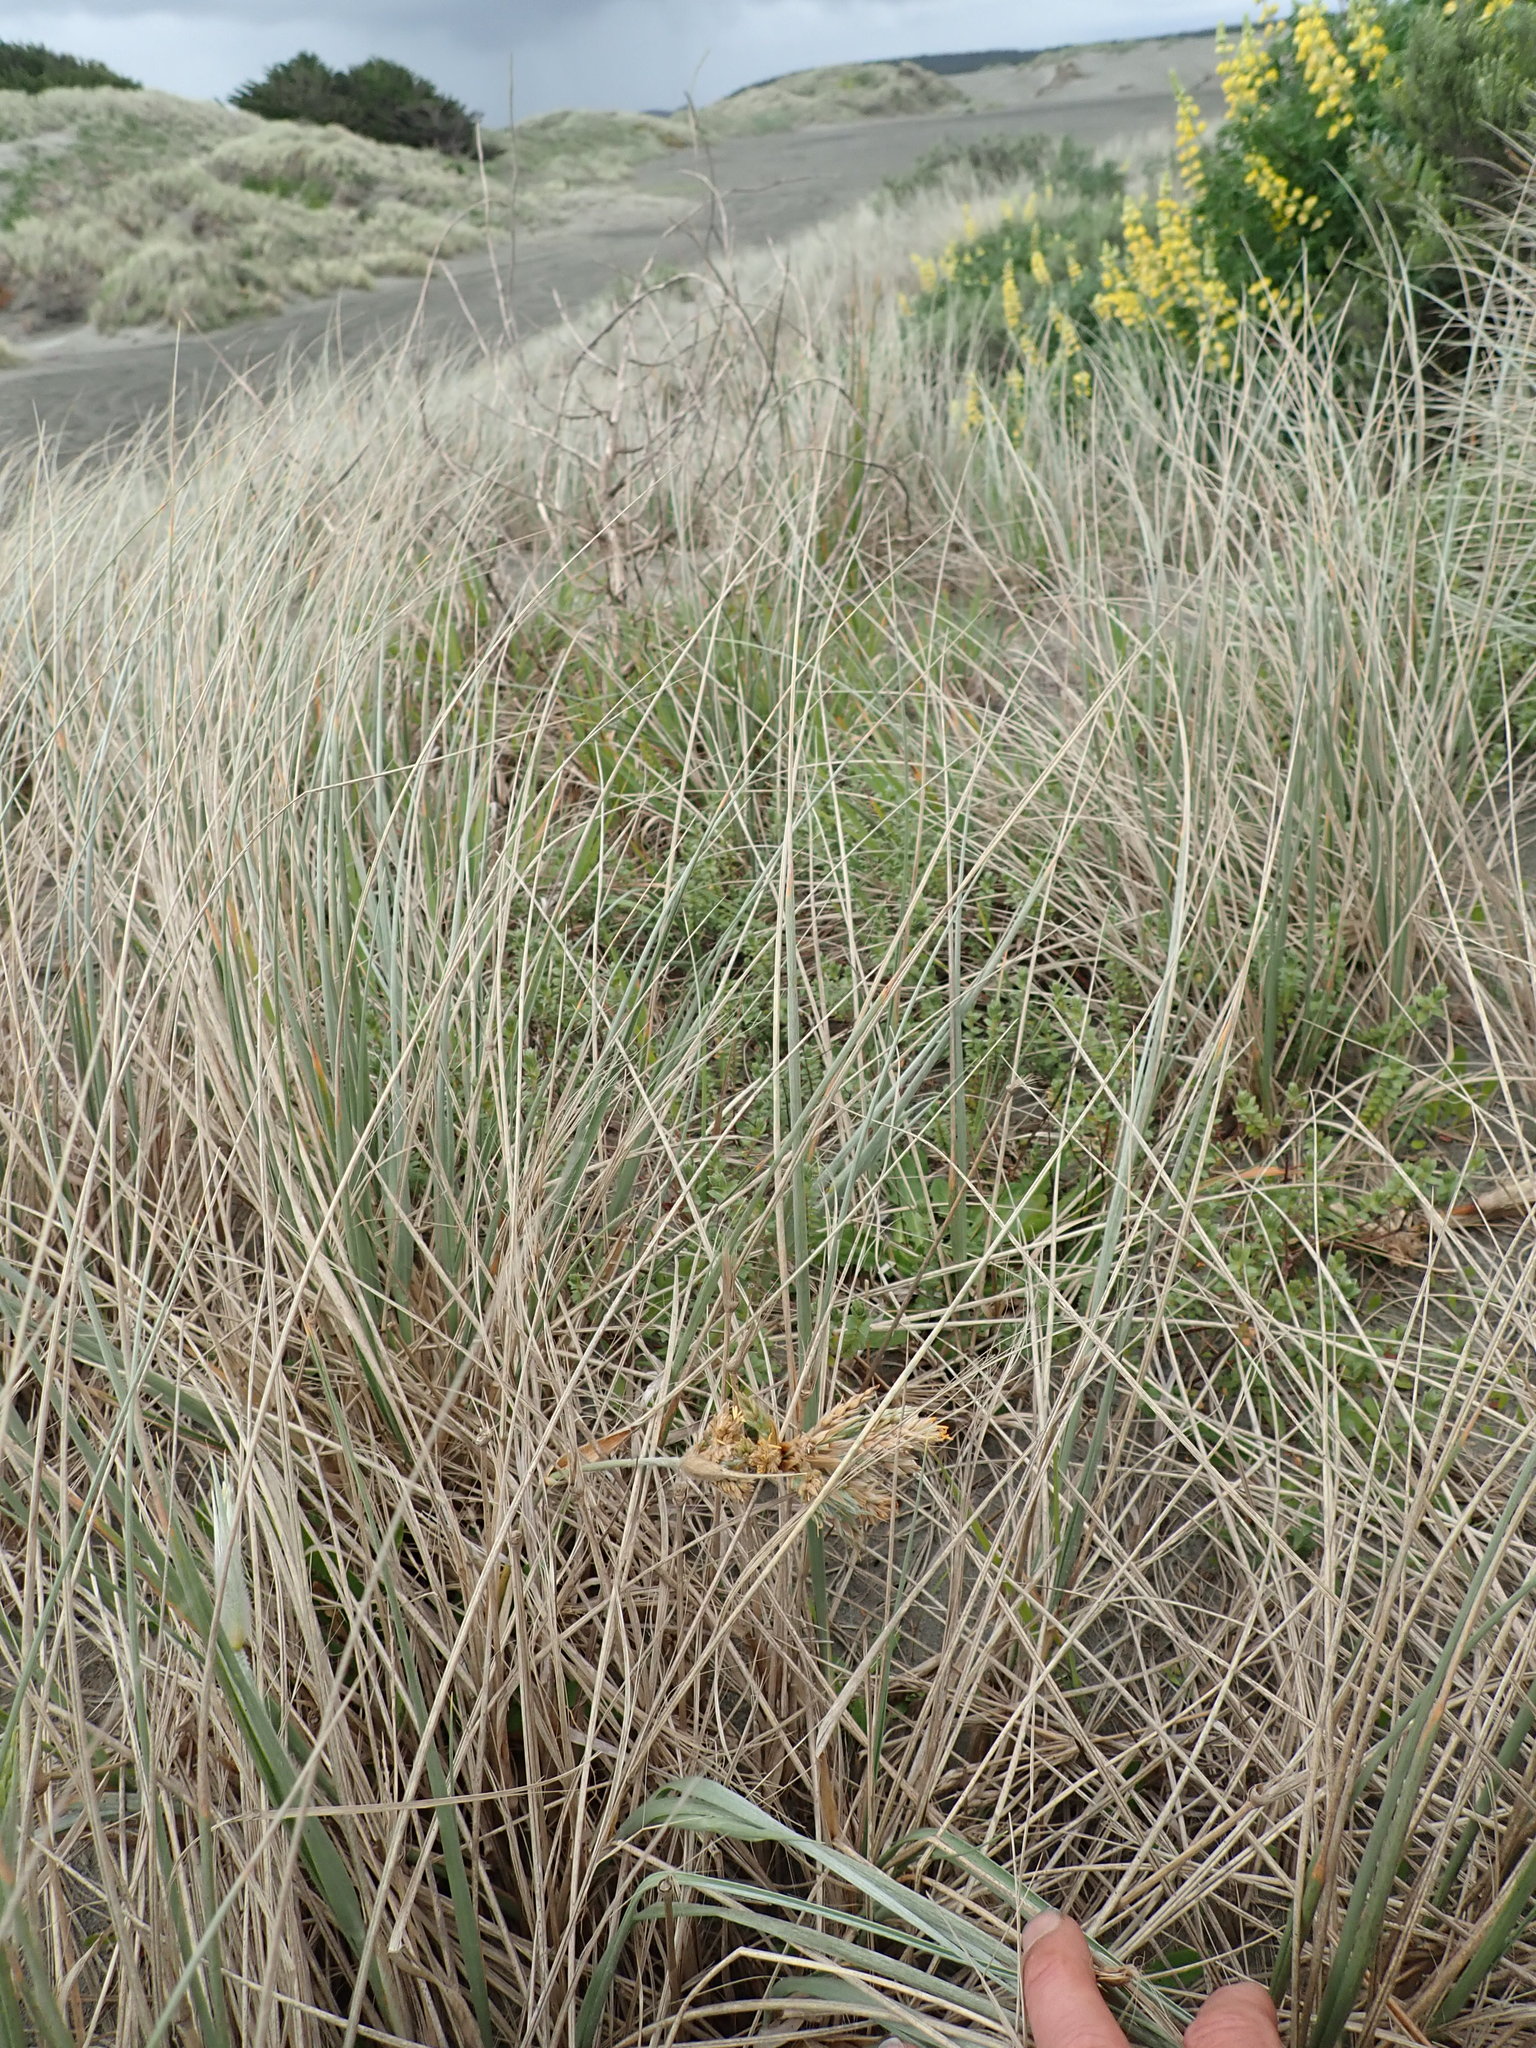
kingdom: Plantae
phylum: Tracheophyta
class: Liliopsida
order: Poales
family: Poaceae
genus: Spinifex
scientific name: Spinifex sericeus
